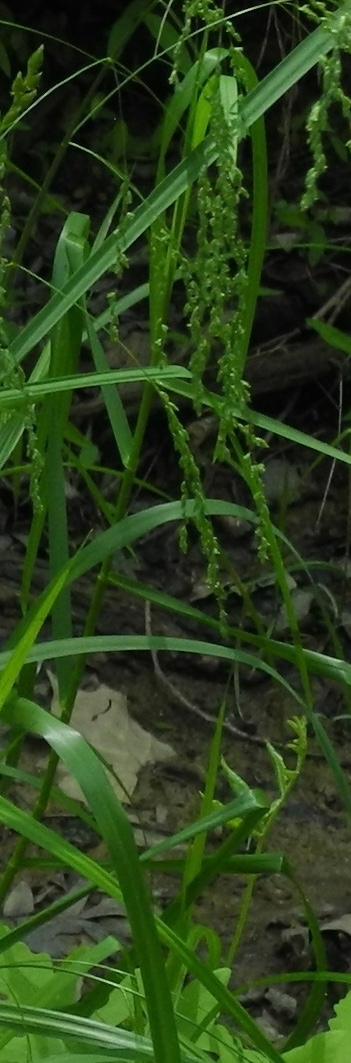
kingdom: Plantae
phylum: Tracheophyta
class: Liliopsida
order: Poales
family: Poaceae
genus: Glyceria
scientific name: Glyceria striata
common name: Fowl manna grass
